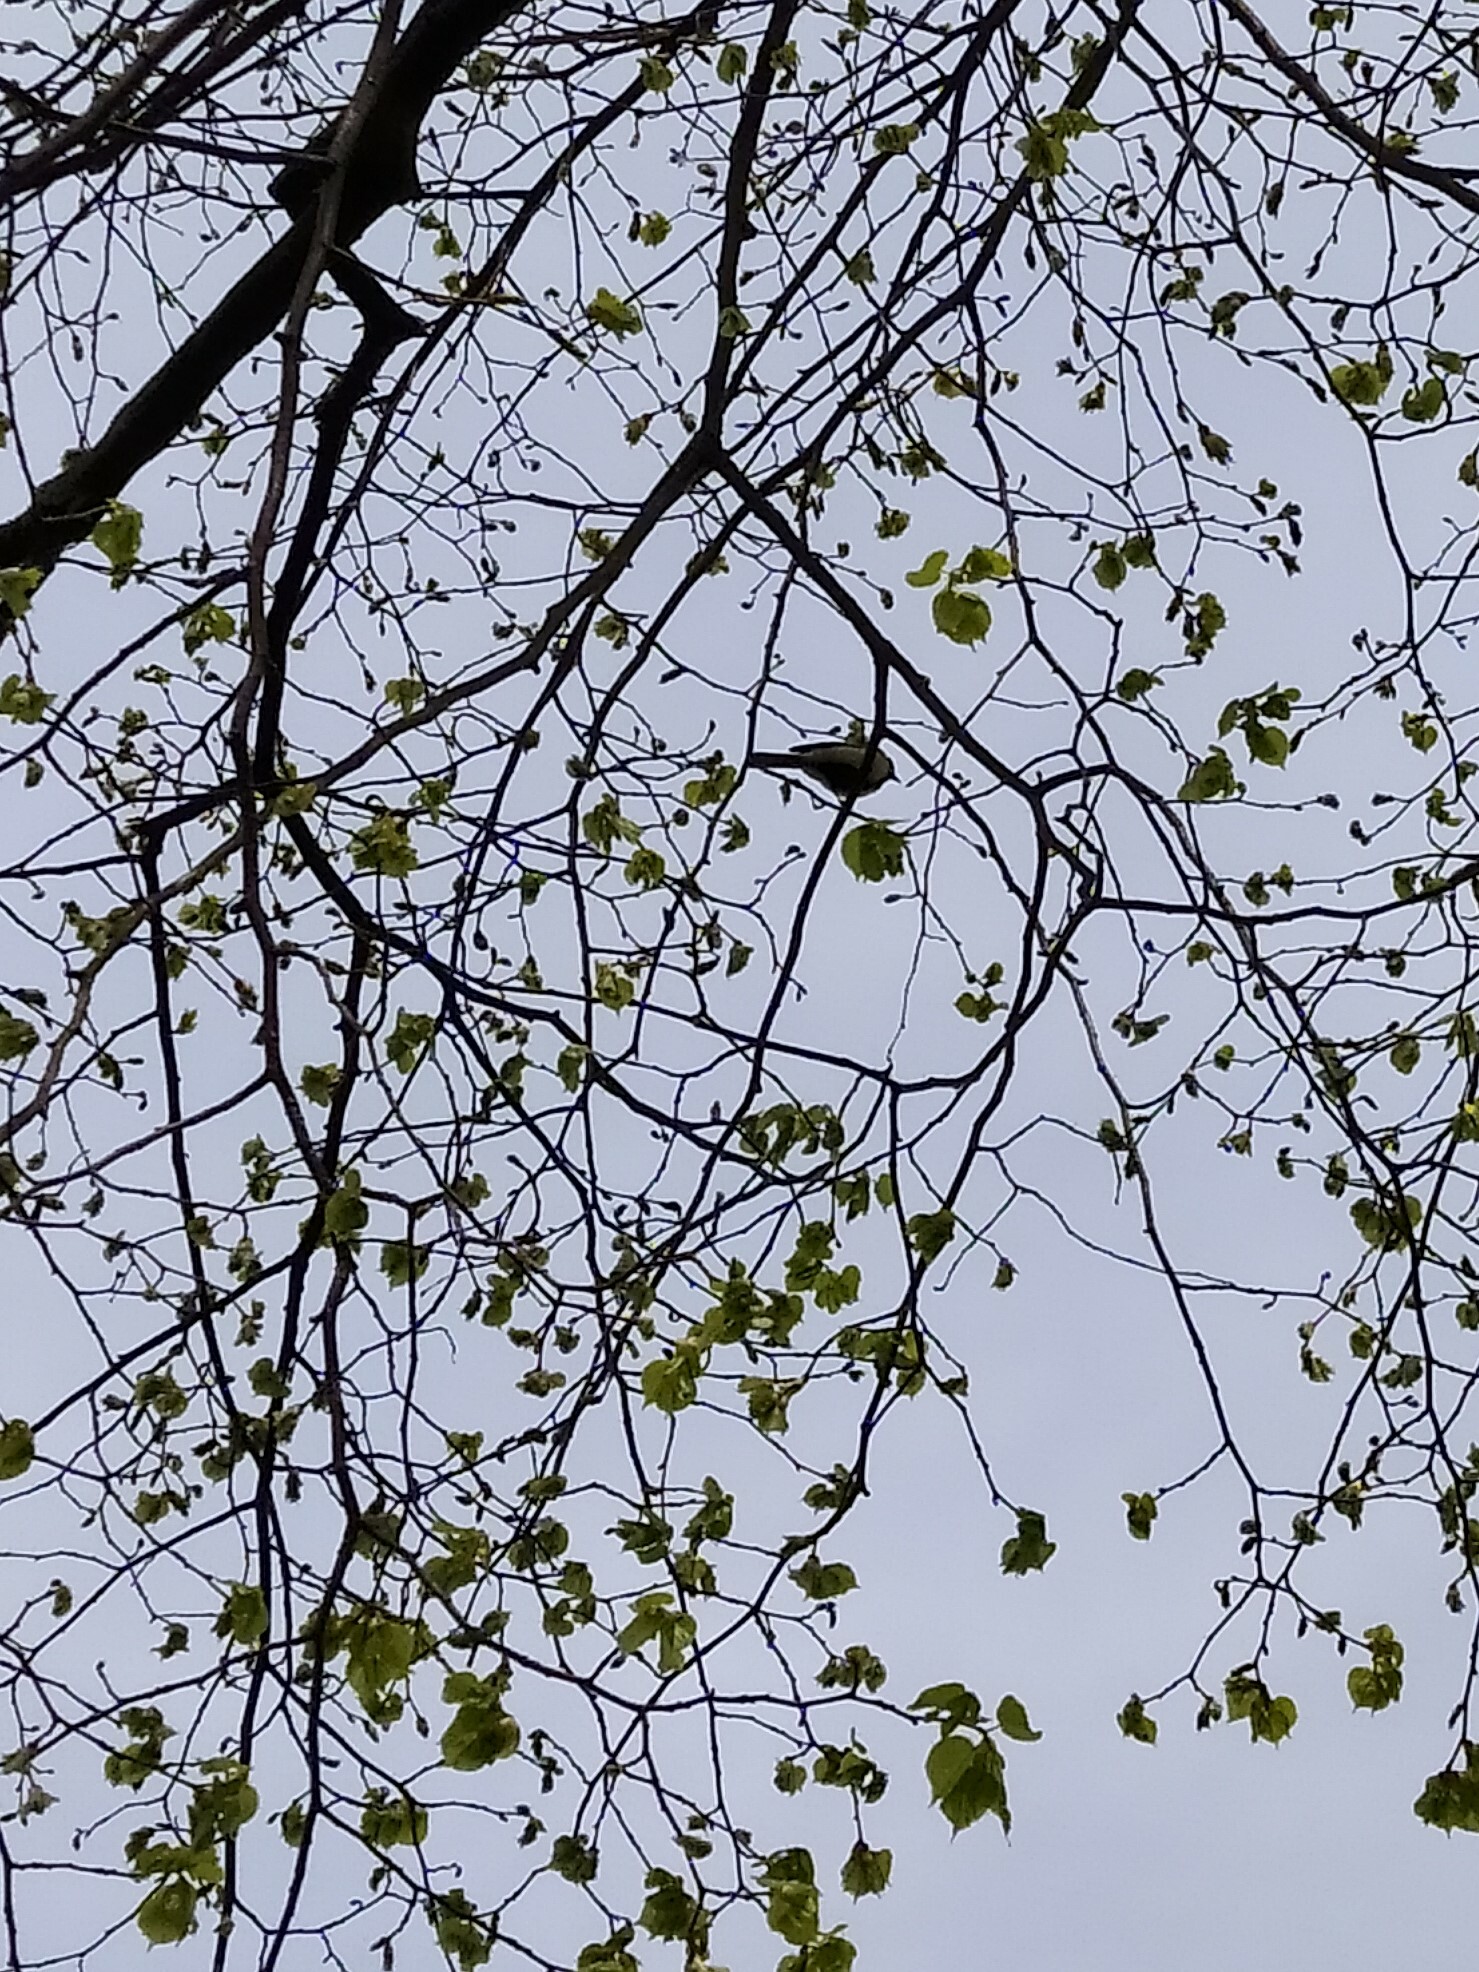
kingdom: Animalia
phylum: Chordata
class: Aves
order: Passeriformes
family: Paridae
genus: Parus
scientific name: Parus major
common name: Great tit
